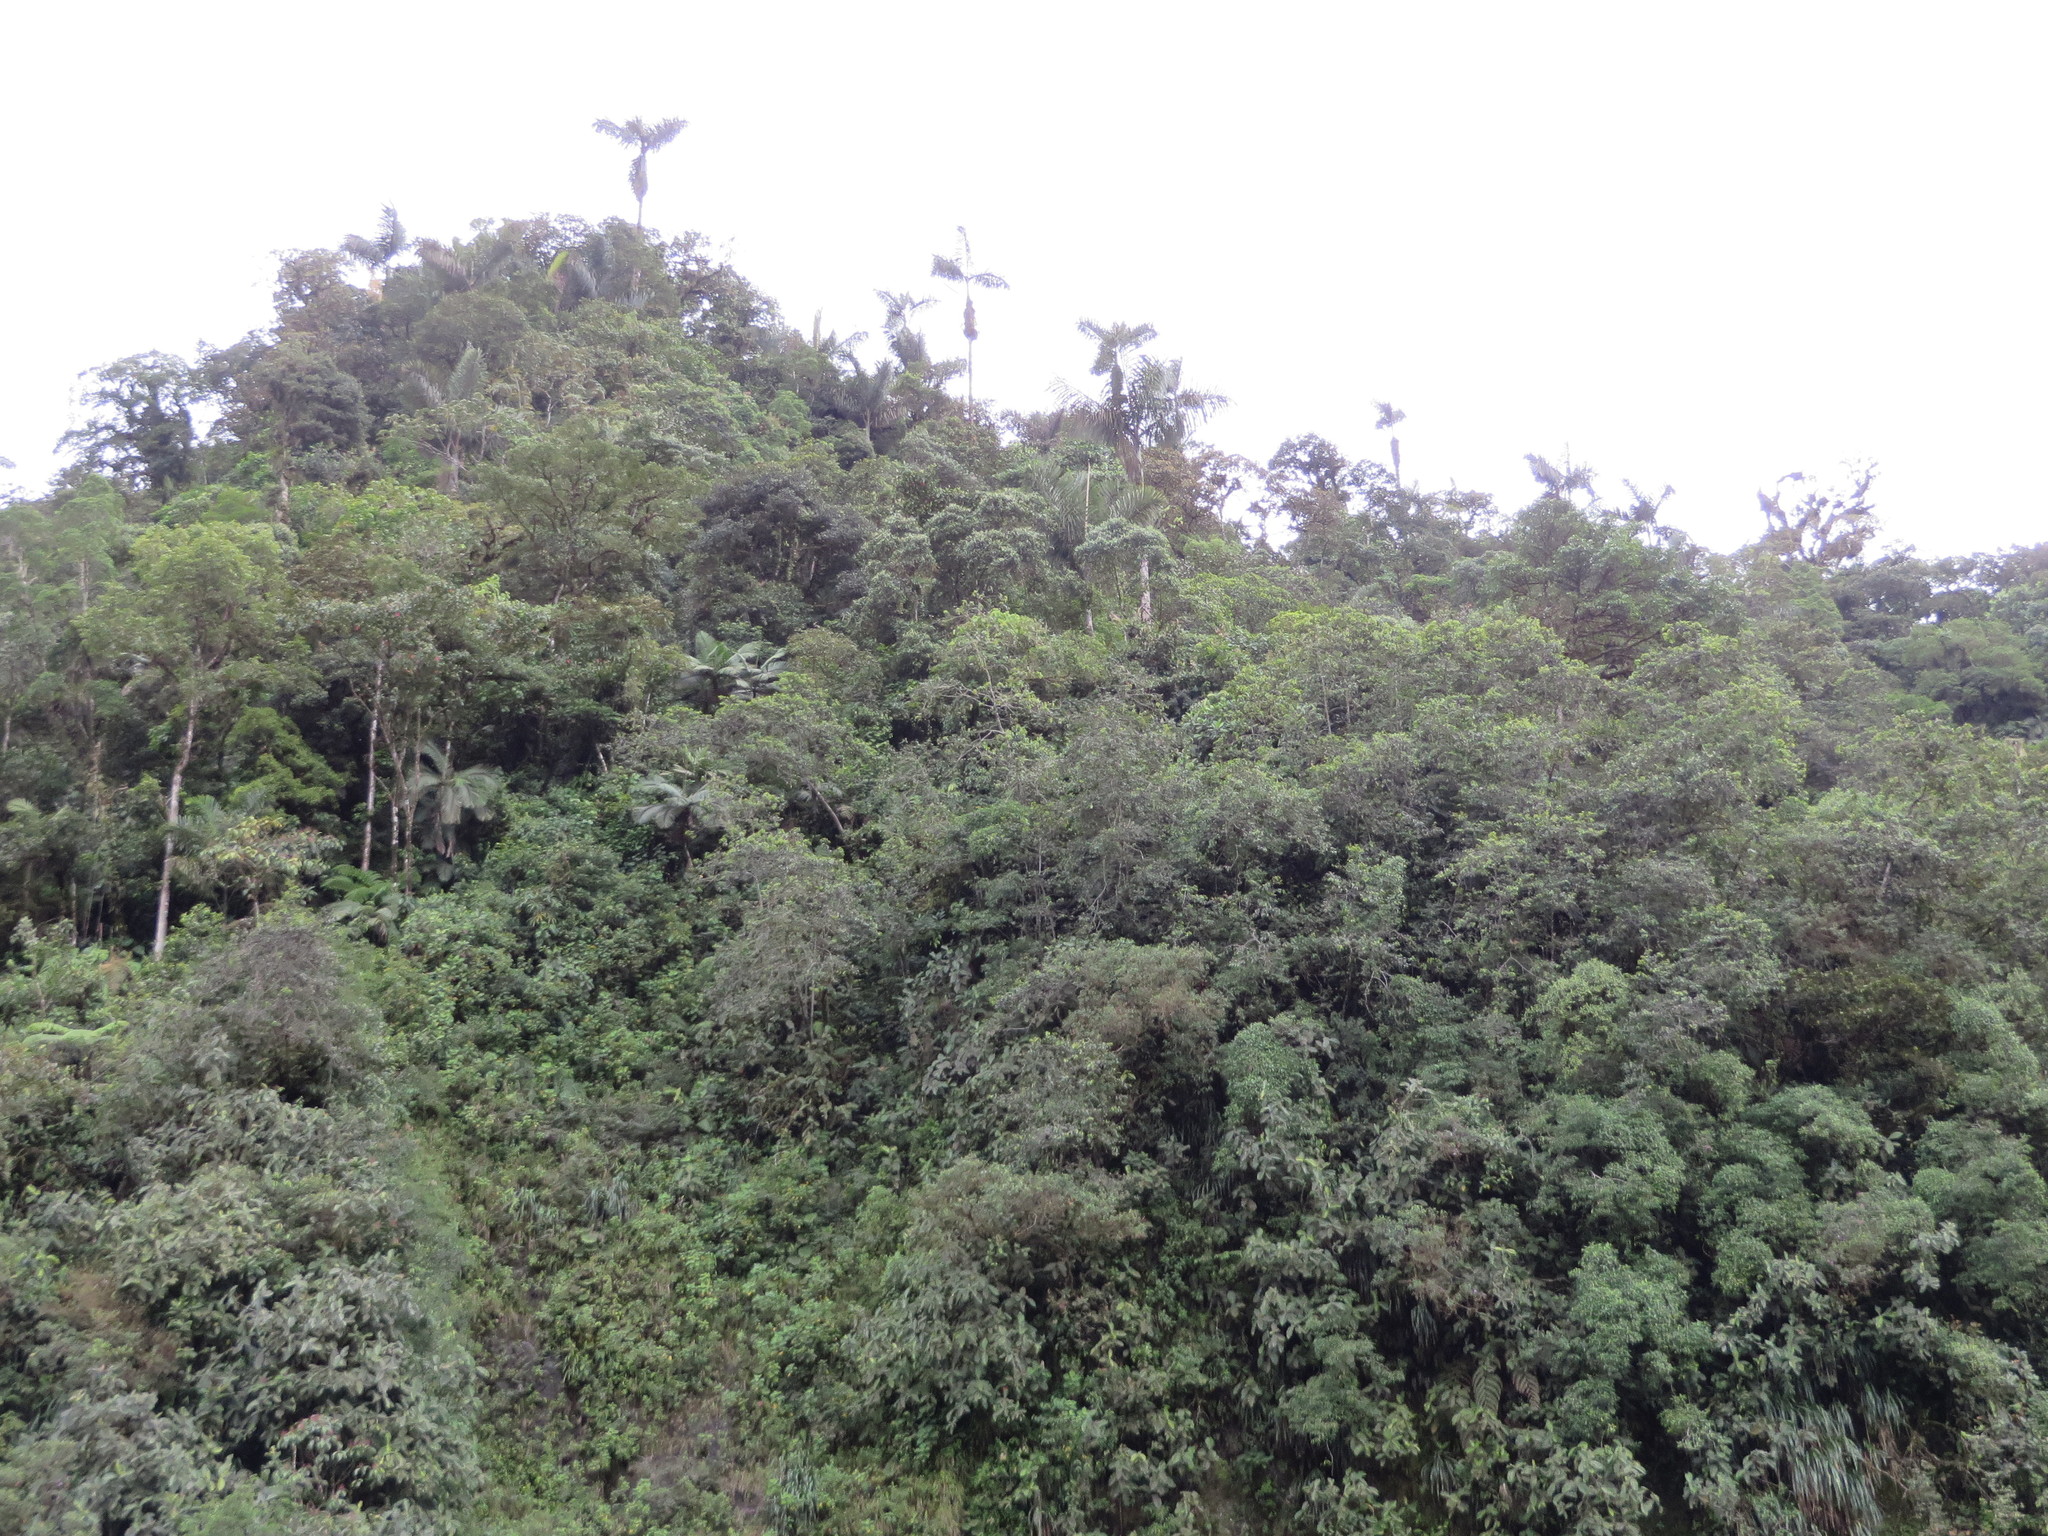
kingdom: Plantae
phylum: Tracheophyta
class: Liliopsida
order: Arecales
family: Arecaceae
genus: Dictyocaryum
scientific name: Dictyocaryum lamarckianum
